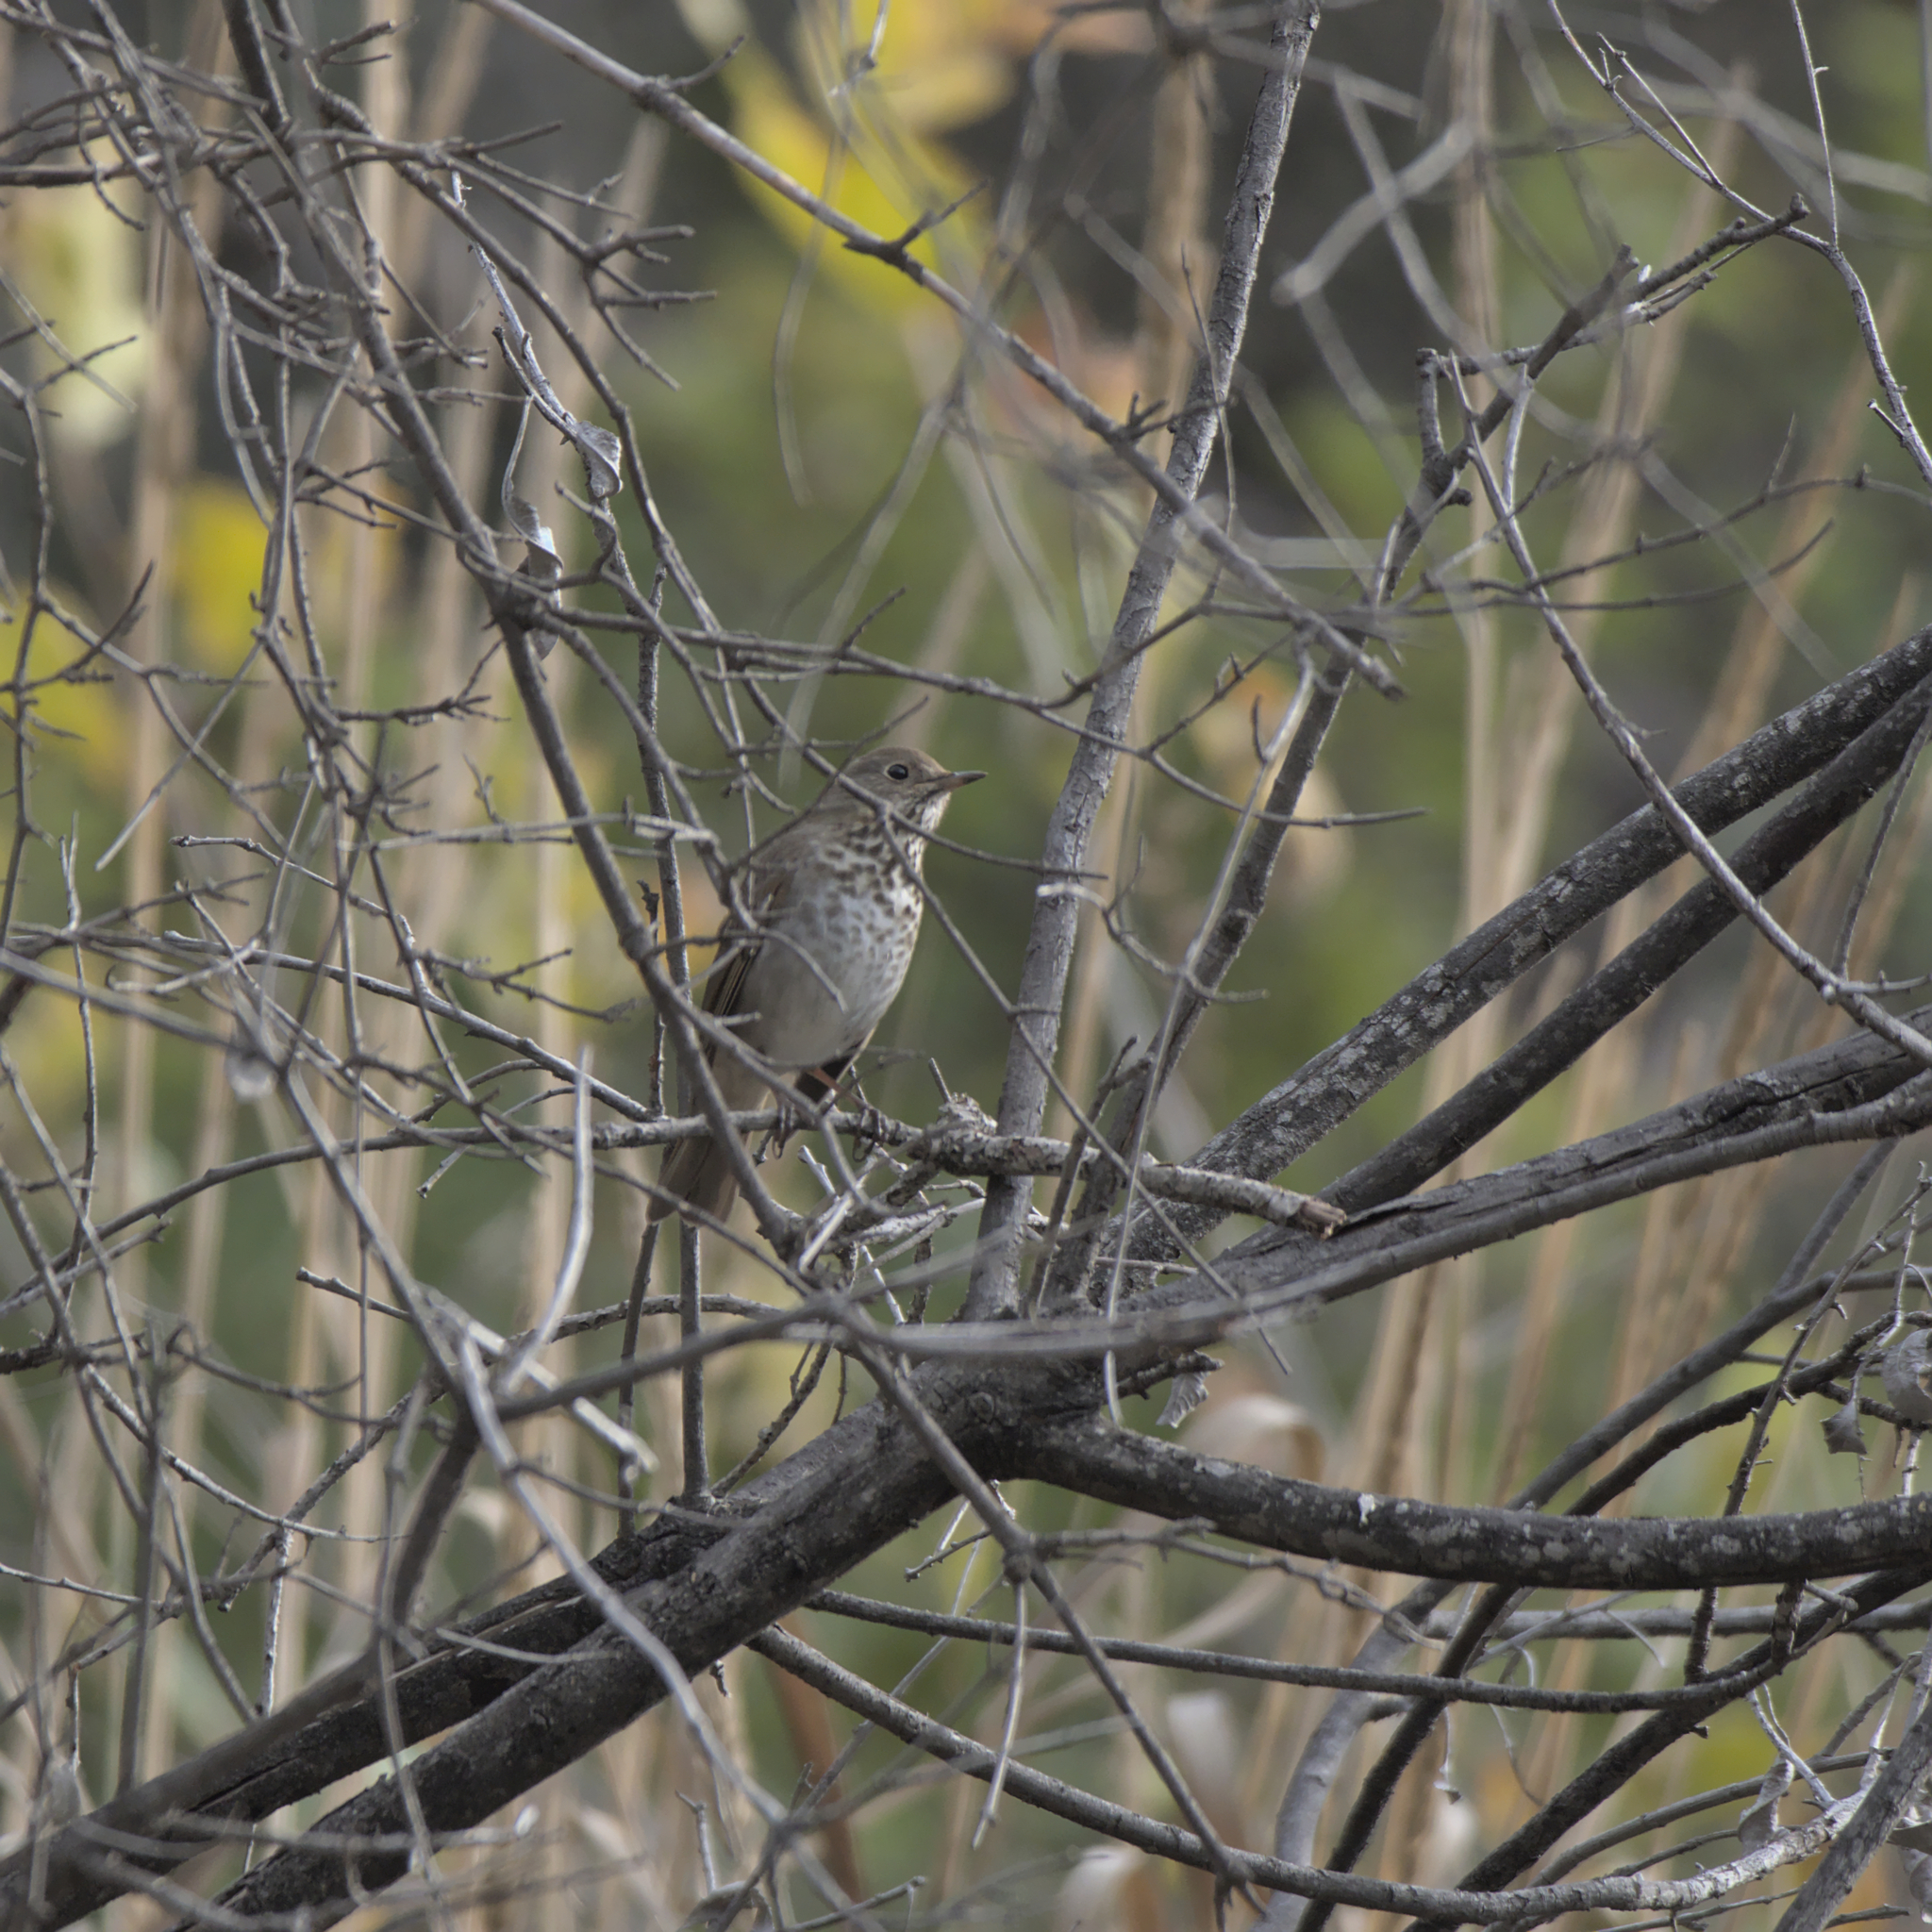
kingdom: Animalia
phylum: Chordata
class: Aves
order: Passeriformes
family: Turdidae
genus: Catharus
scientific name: Catharus guttatus
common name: Hermit thrush
